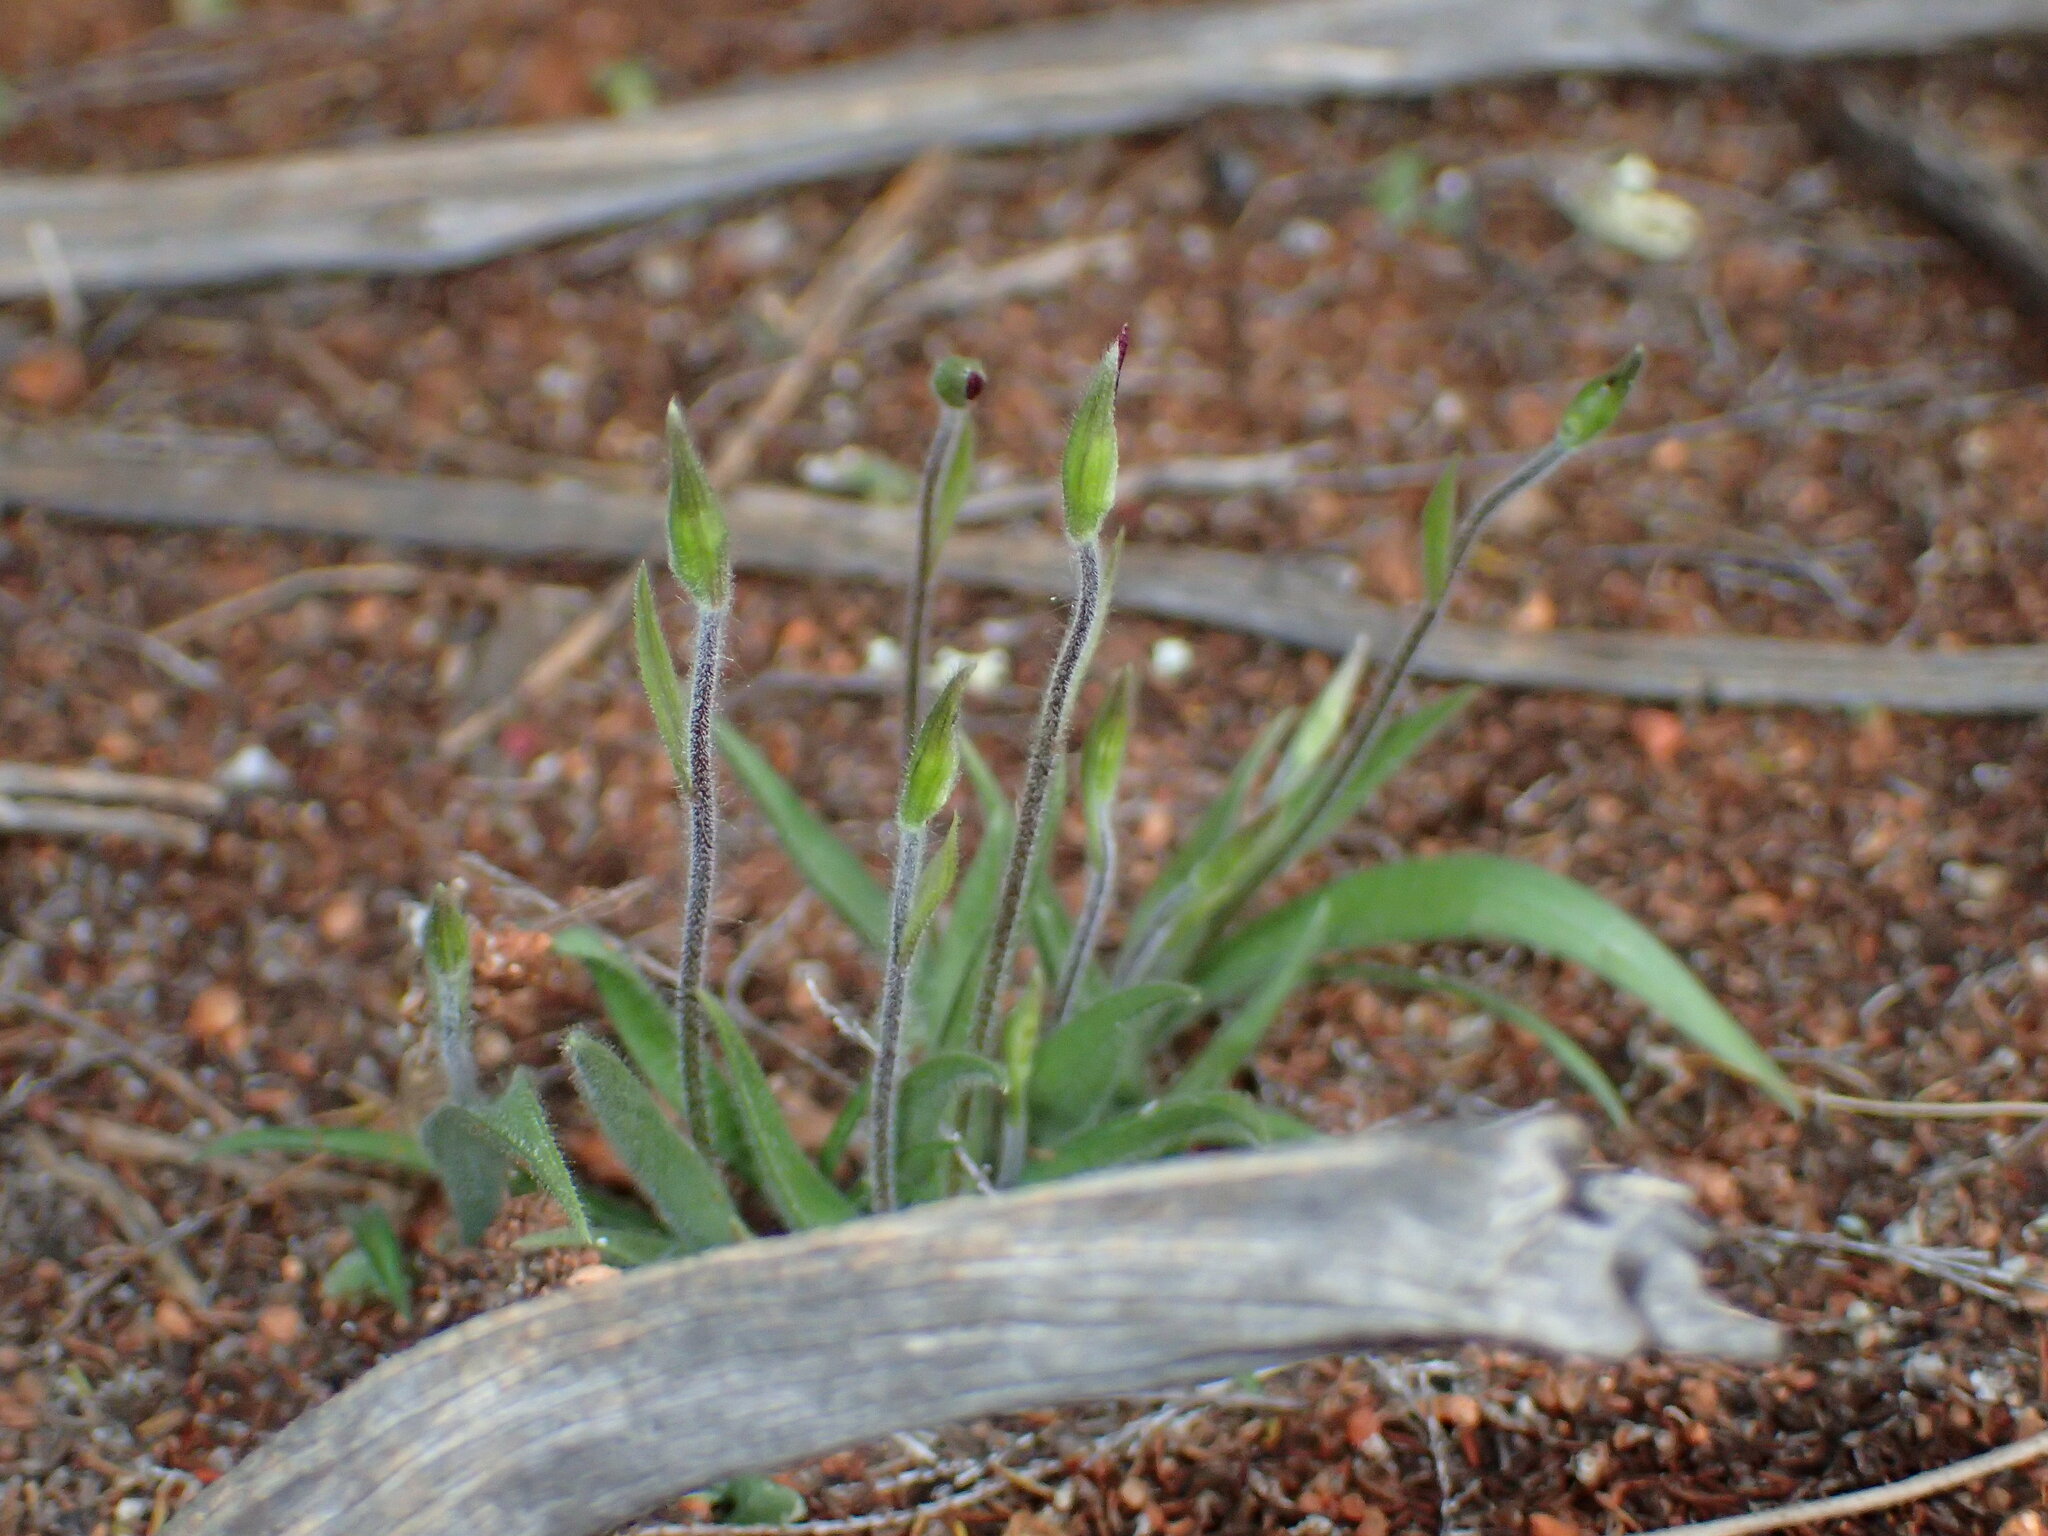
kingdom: Plantae
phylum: Tracheophyta
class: Liliopsida
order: Asparagales
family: Orchidaceae
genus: Caladenia
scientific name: Caladenia hirta
